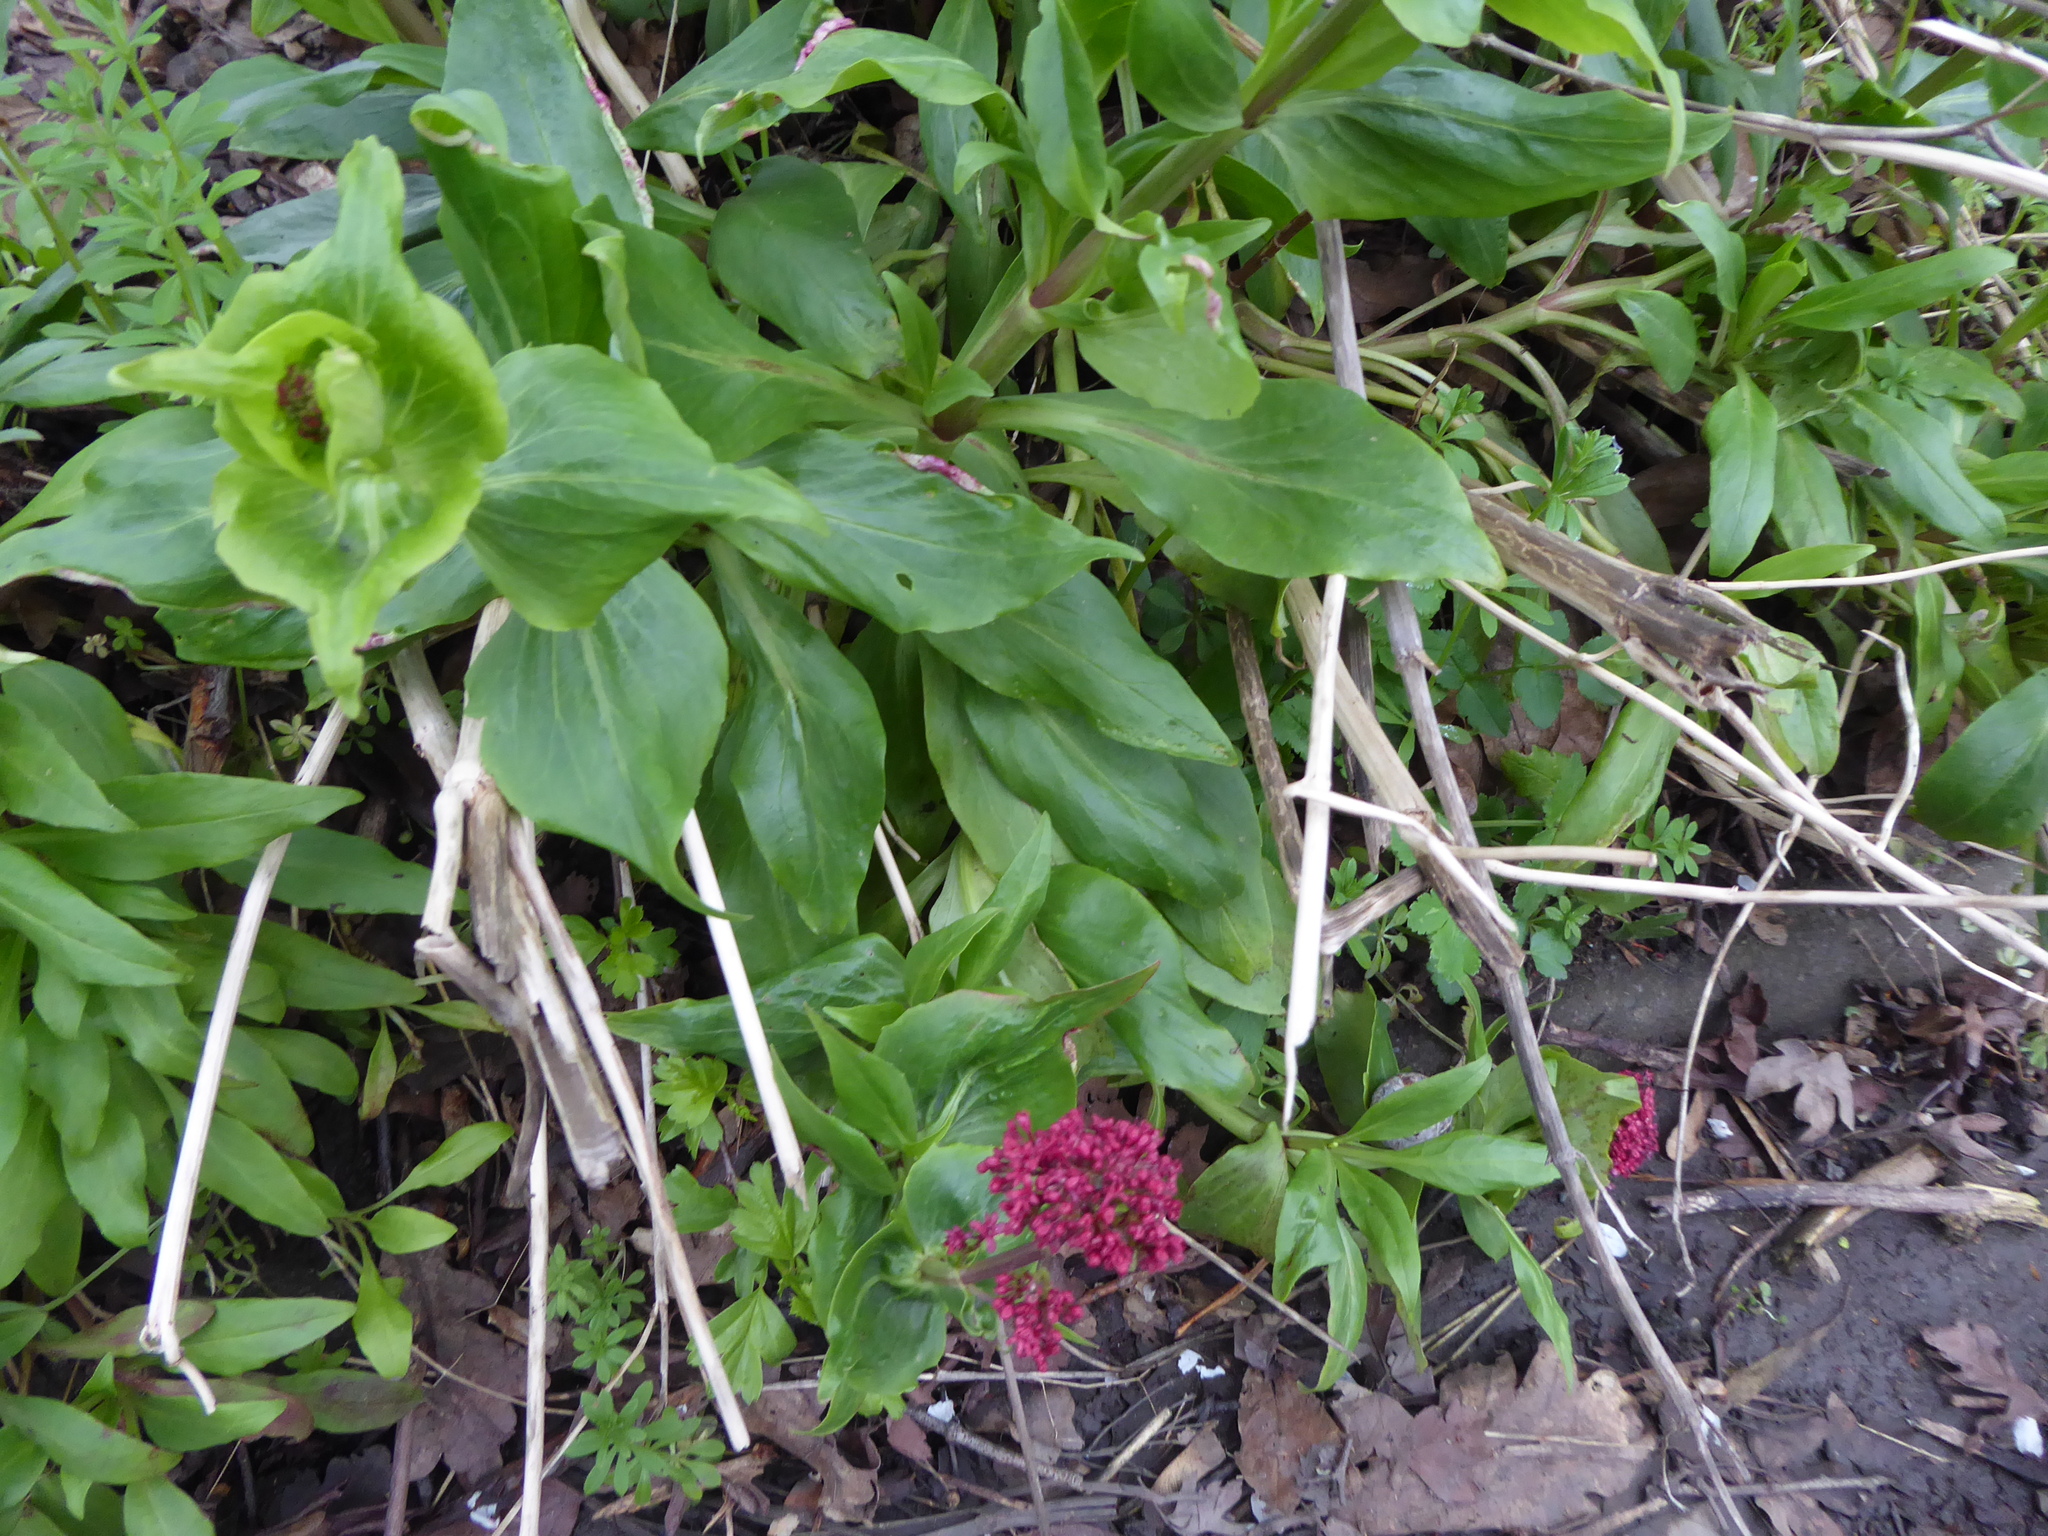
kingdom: Plantae
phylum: Tracheophyta
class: Magnoliopsida
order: Dipsacales
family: Caprifoliaceae
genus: Centranthus
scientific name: Centranthus ruber
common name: Red valerian
